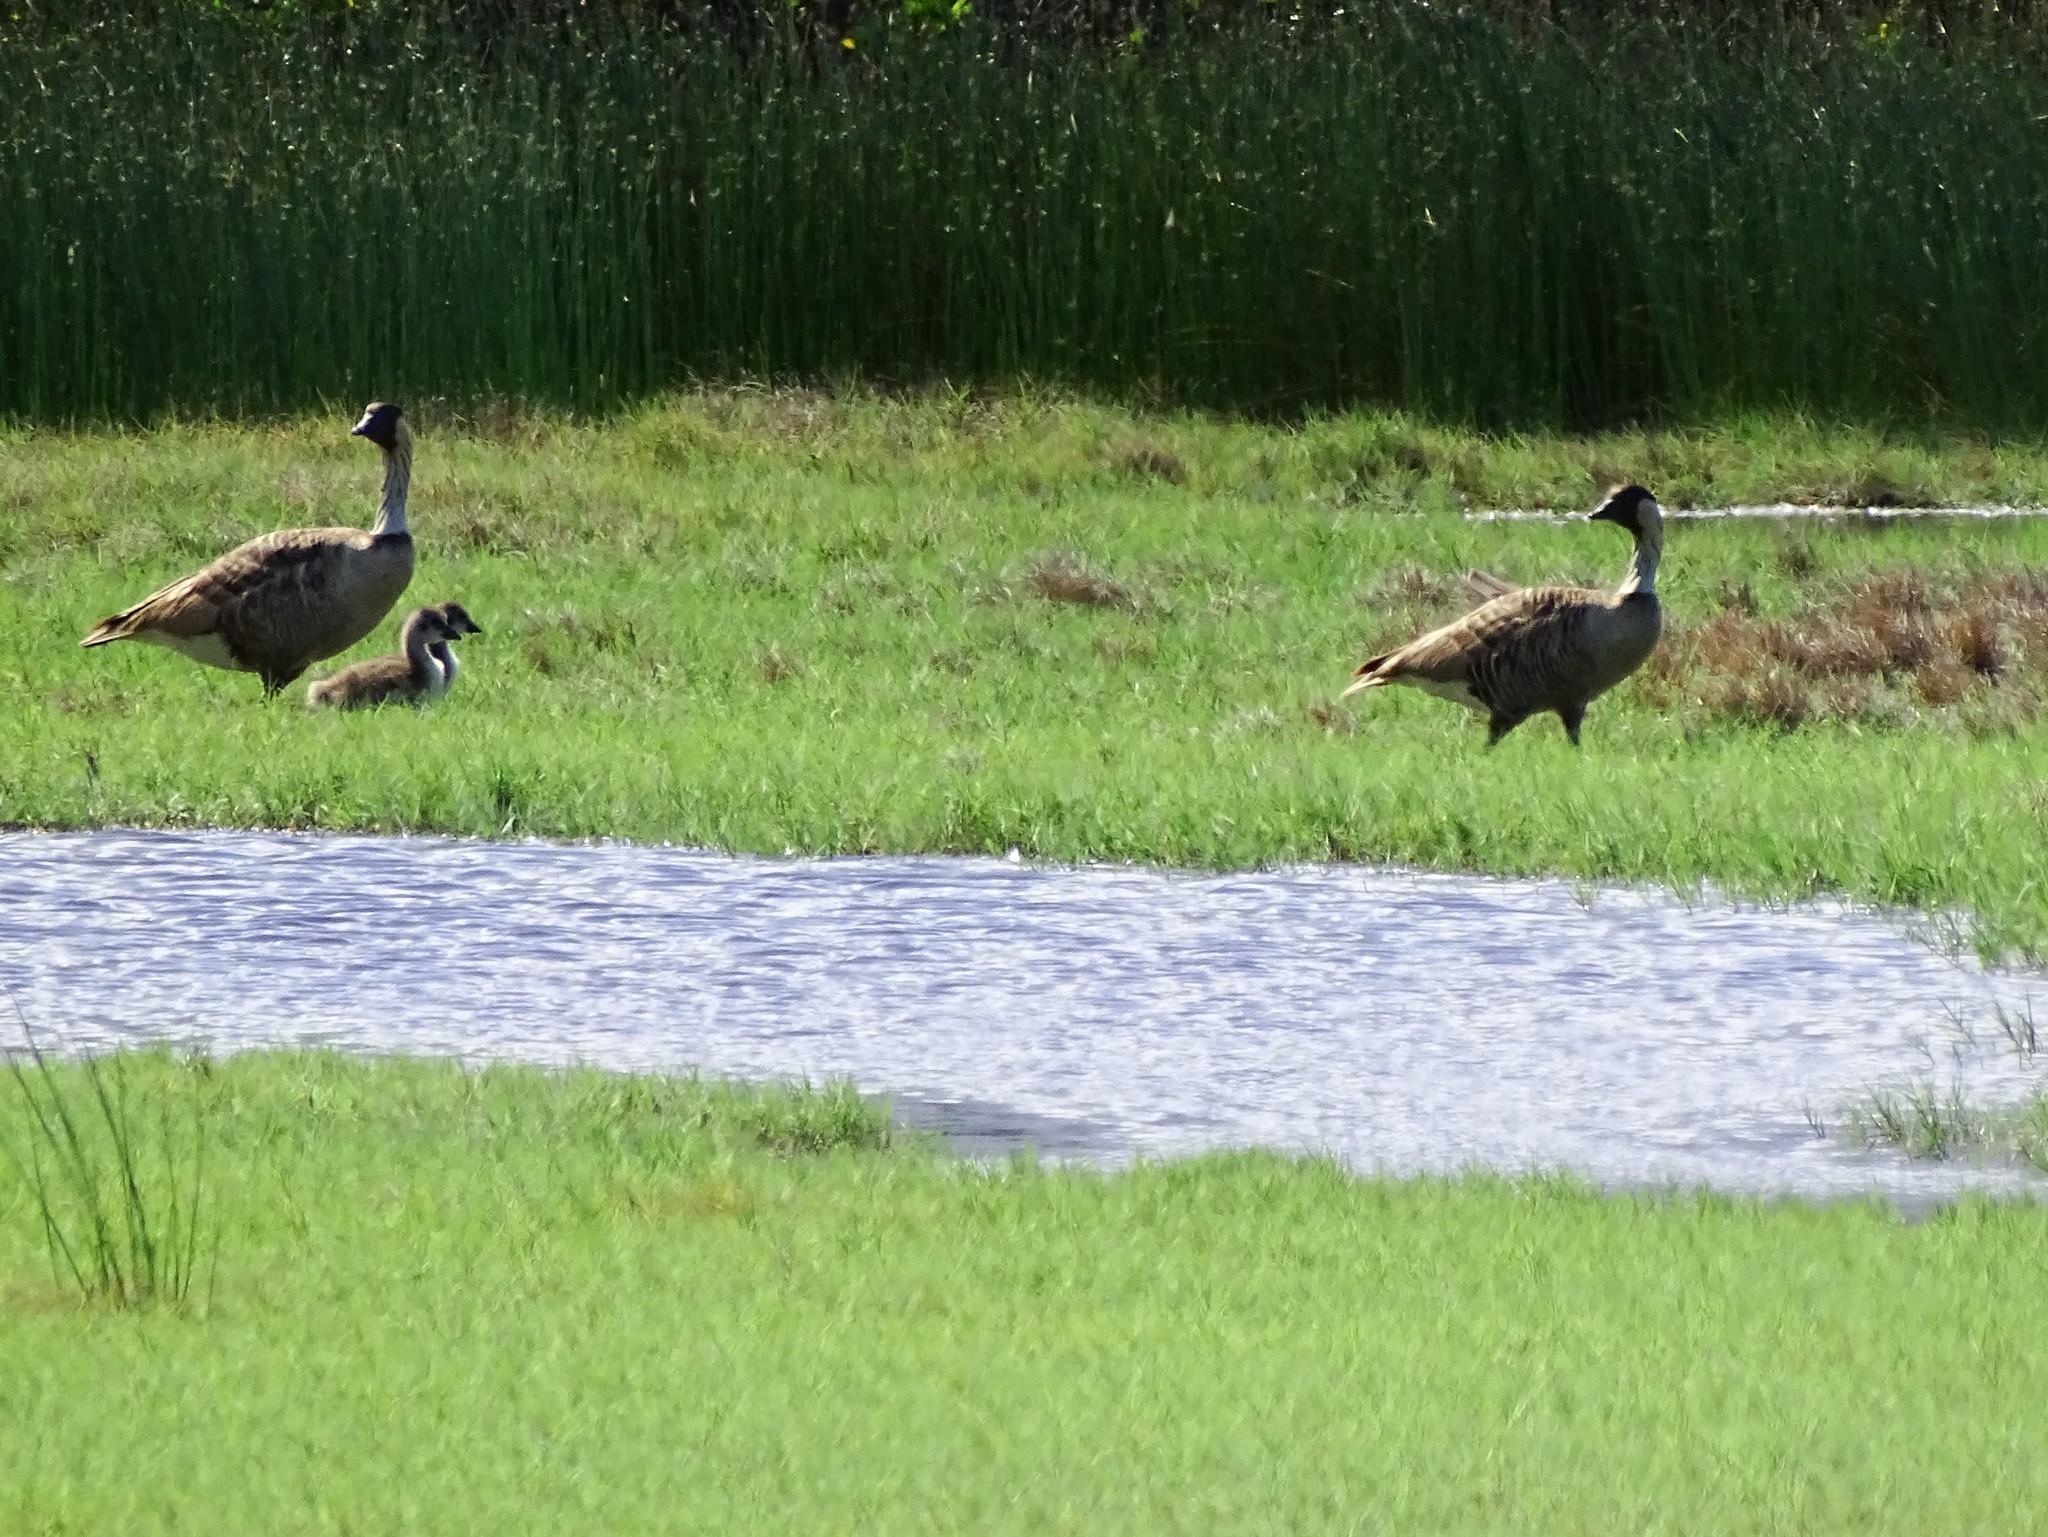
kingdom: Animalia
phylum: Chordata
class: Aves
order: Anseriformes
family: Anatidae
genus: Branta
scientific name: Branta sandvicensis
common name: Nene
